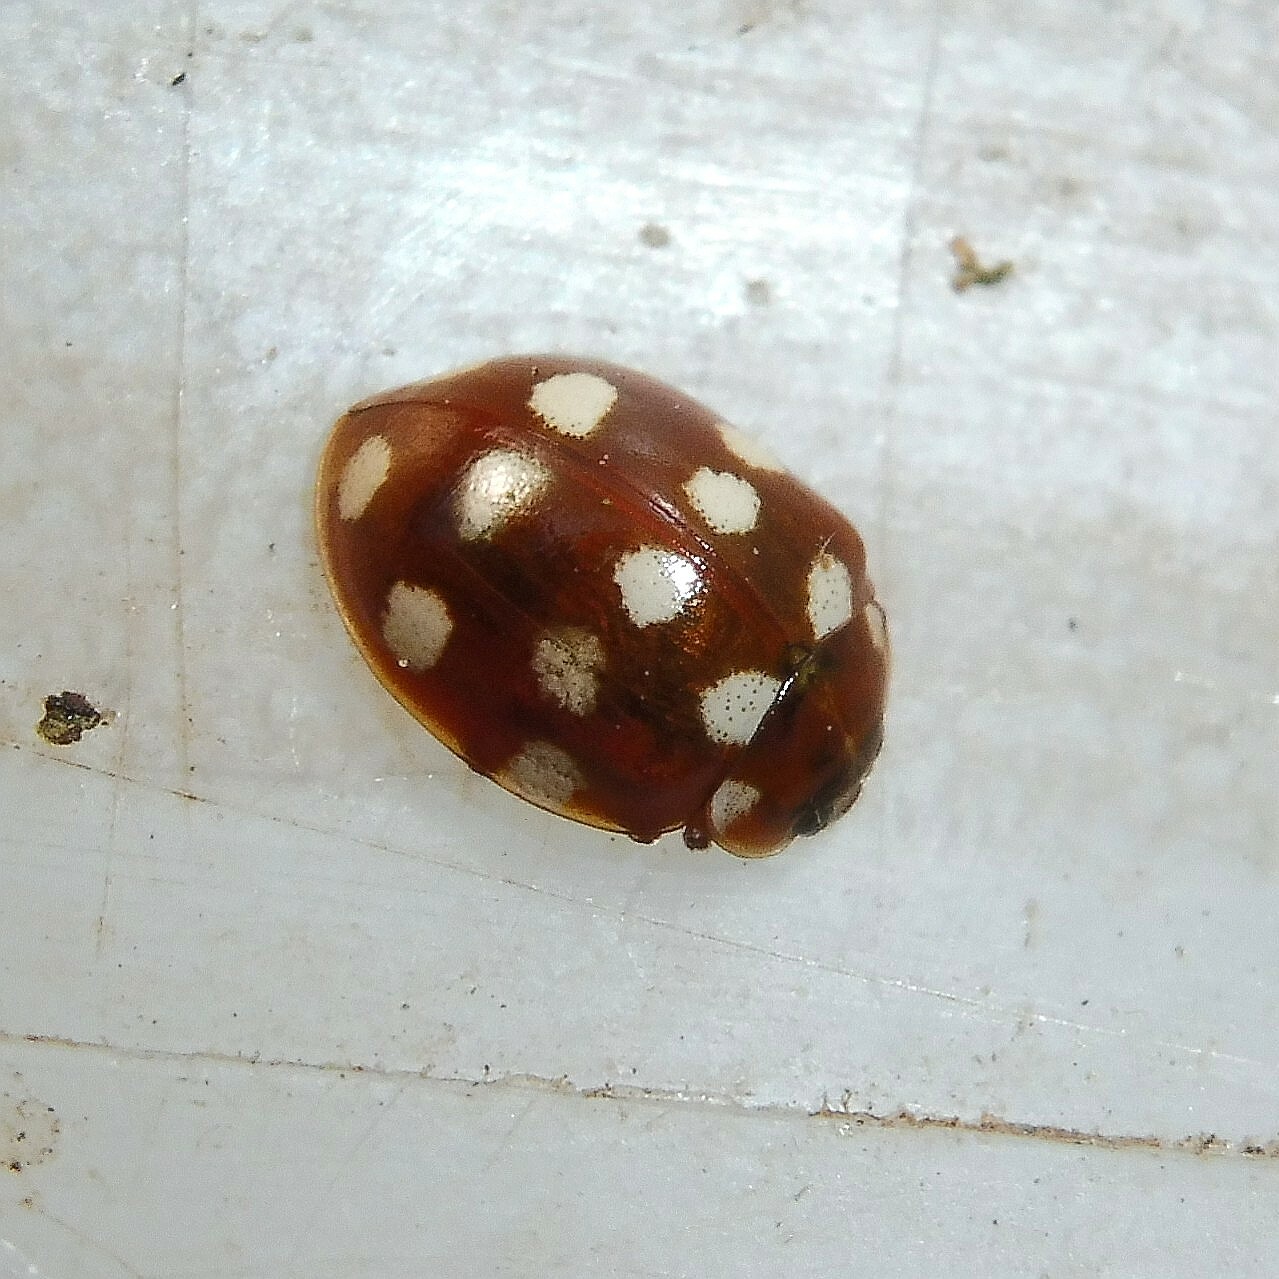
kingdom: Animalia
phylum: Arthropoda
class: Insecta
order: Coleoptera
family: Coccinellidae
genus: Calvia
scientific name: Calvia quatuordecimguttata
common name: Cream-spot ladybird
